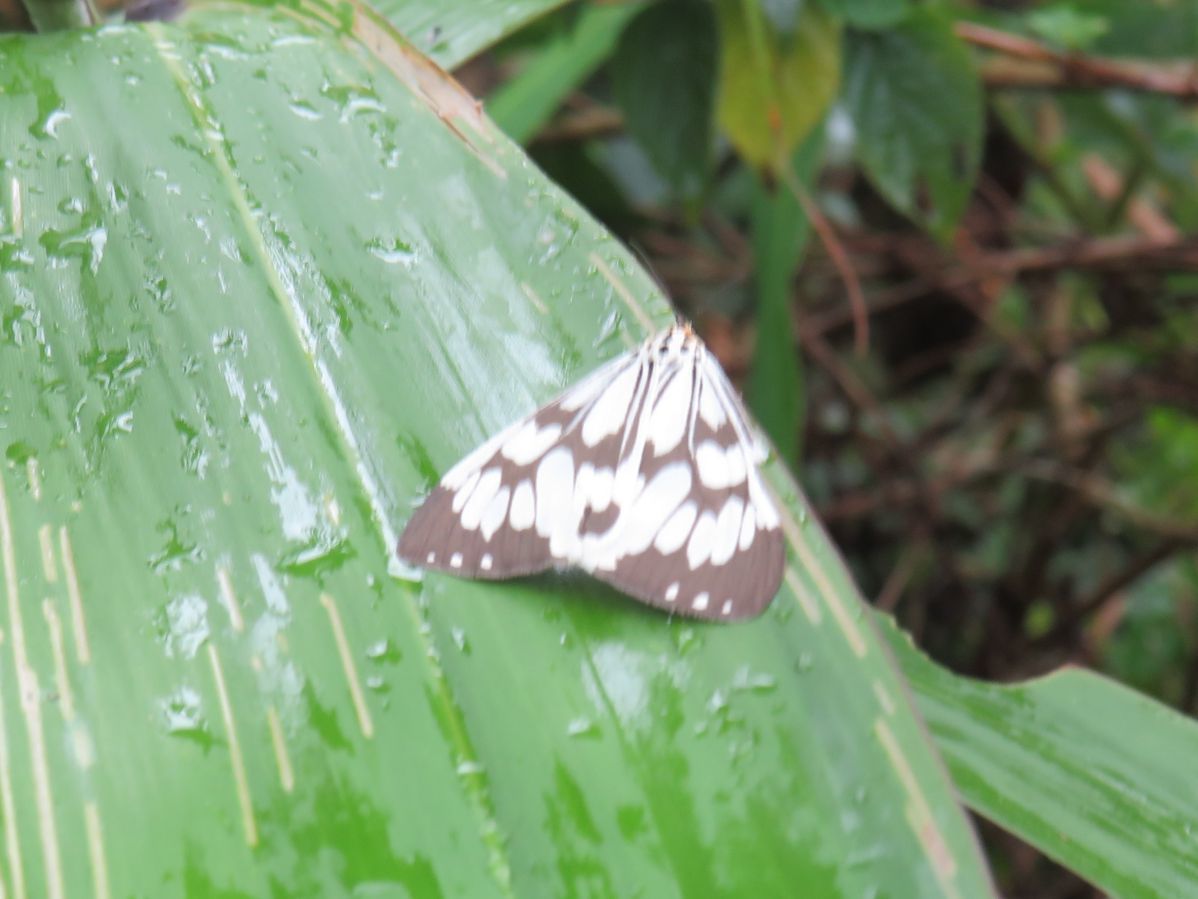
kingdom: Animalia
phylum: Arthropoda
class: Insecta
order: Lepidoptera
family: Erebidae
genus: Nyctemera
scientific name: Nyctemera adversata
